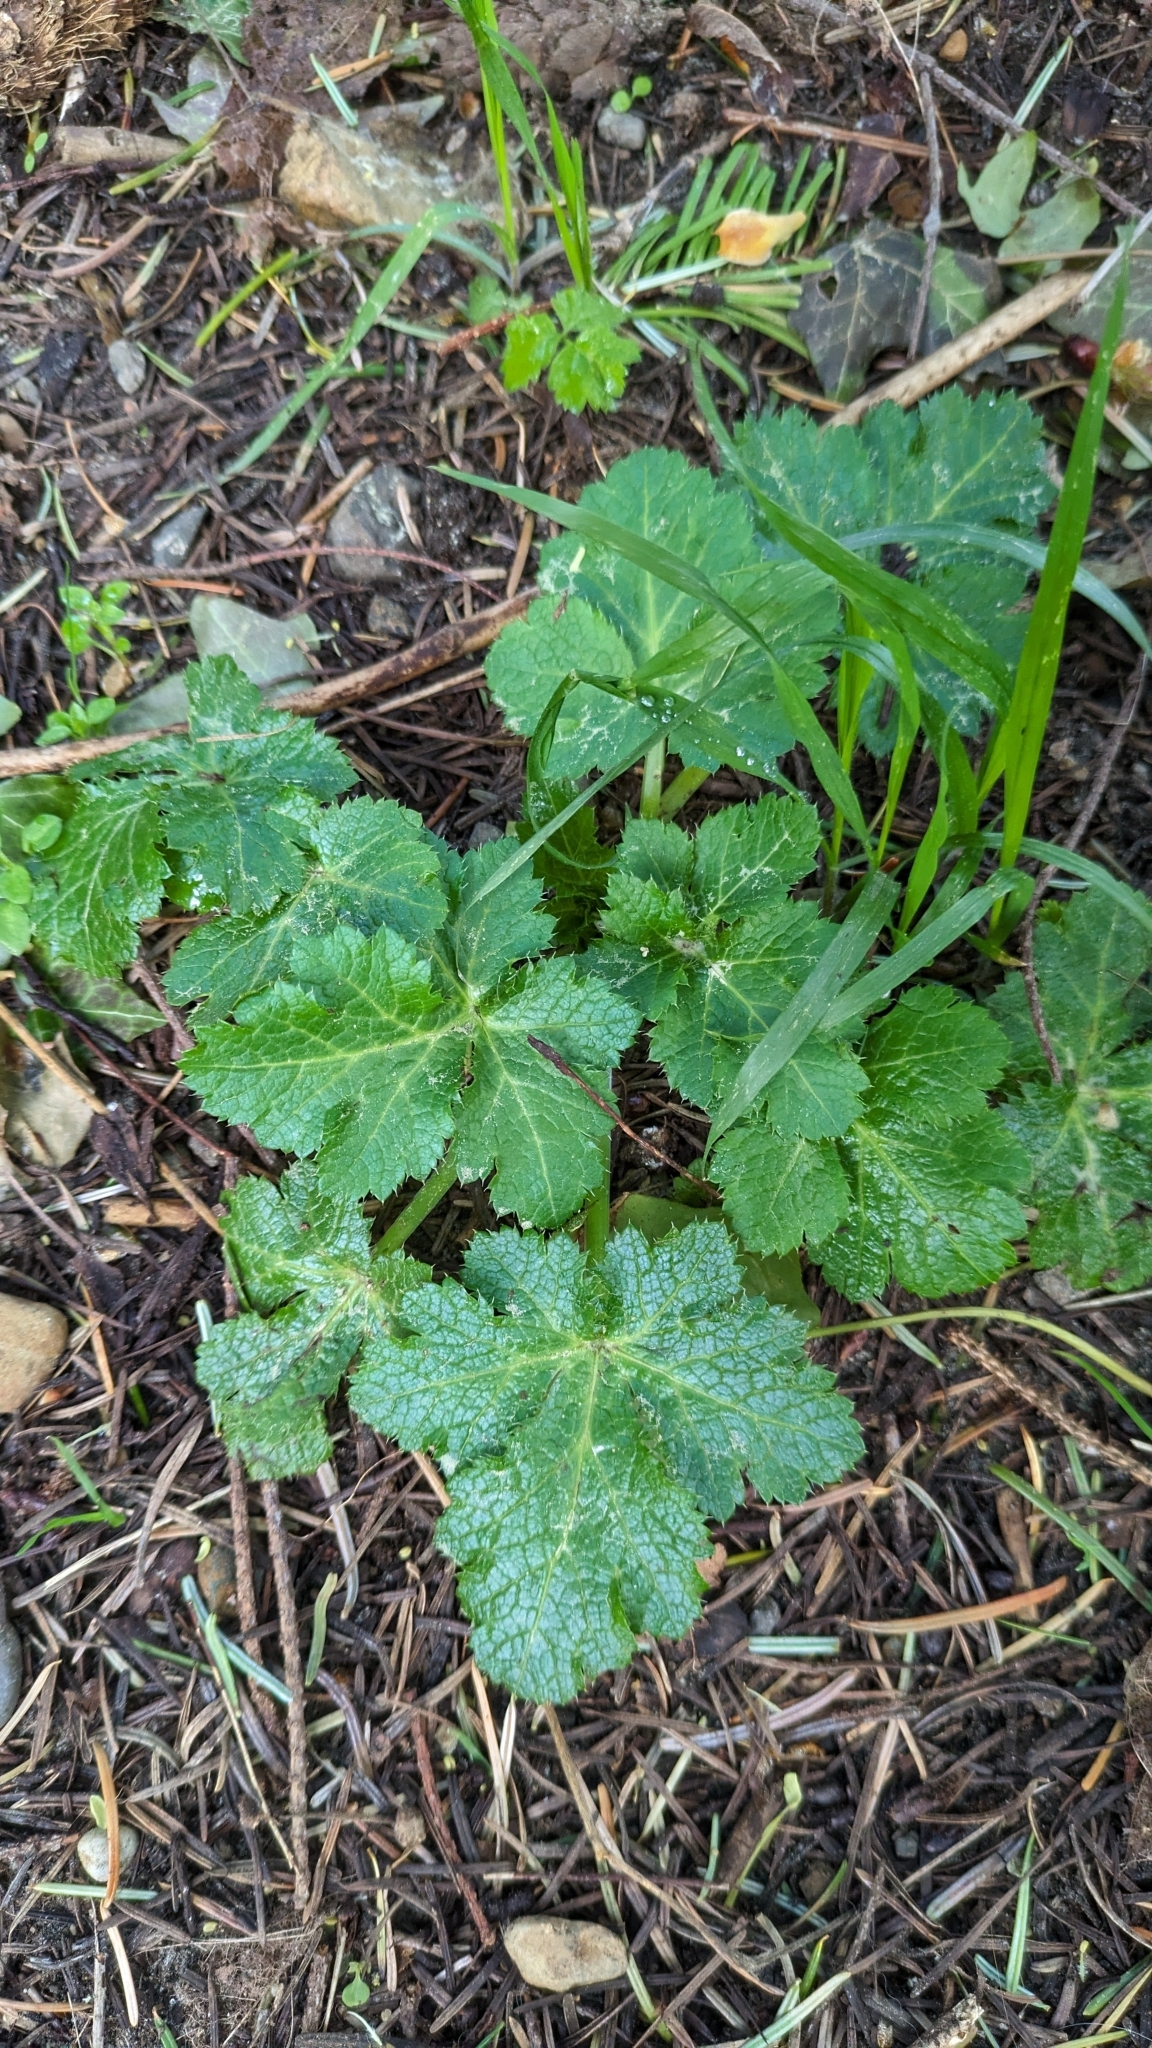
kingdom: Plantae
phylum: Tracheophyta
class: Magnoliopsida
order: Apiales
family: Apiaceae
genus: Sanicula
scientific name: Sanicula crassicaulis
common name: Western snakeroot
